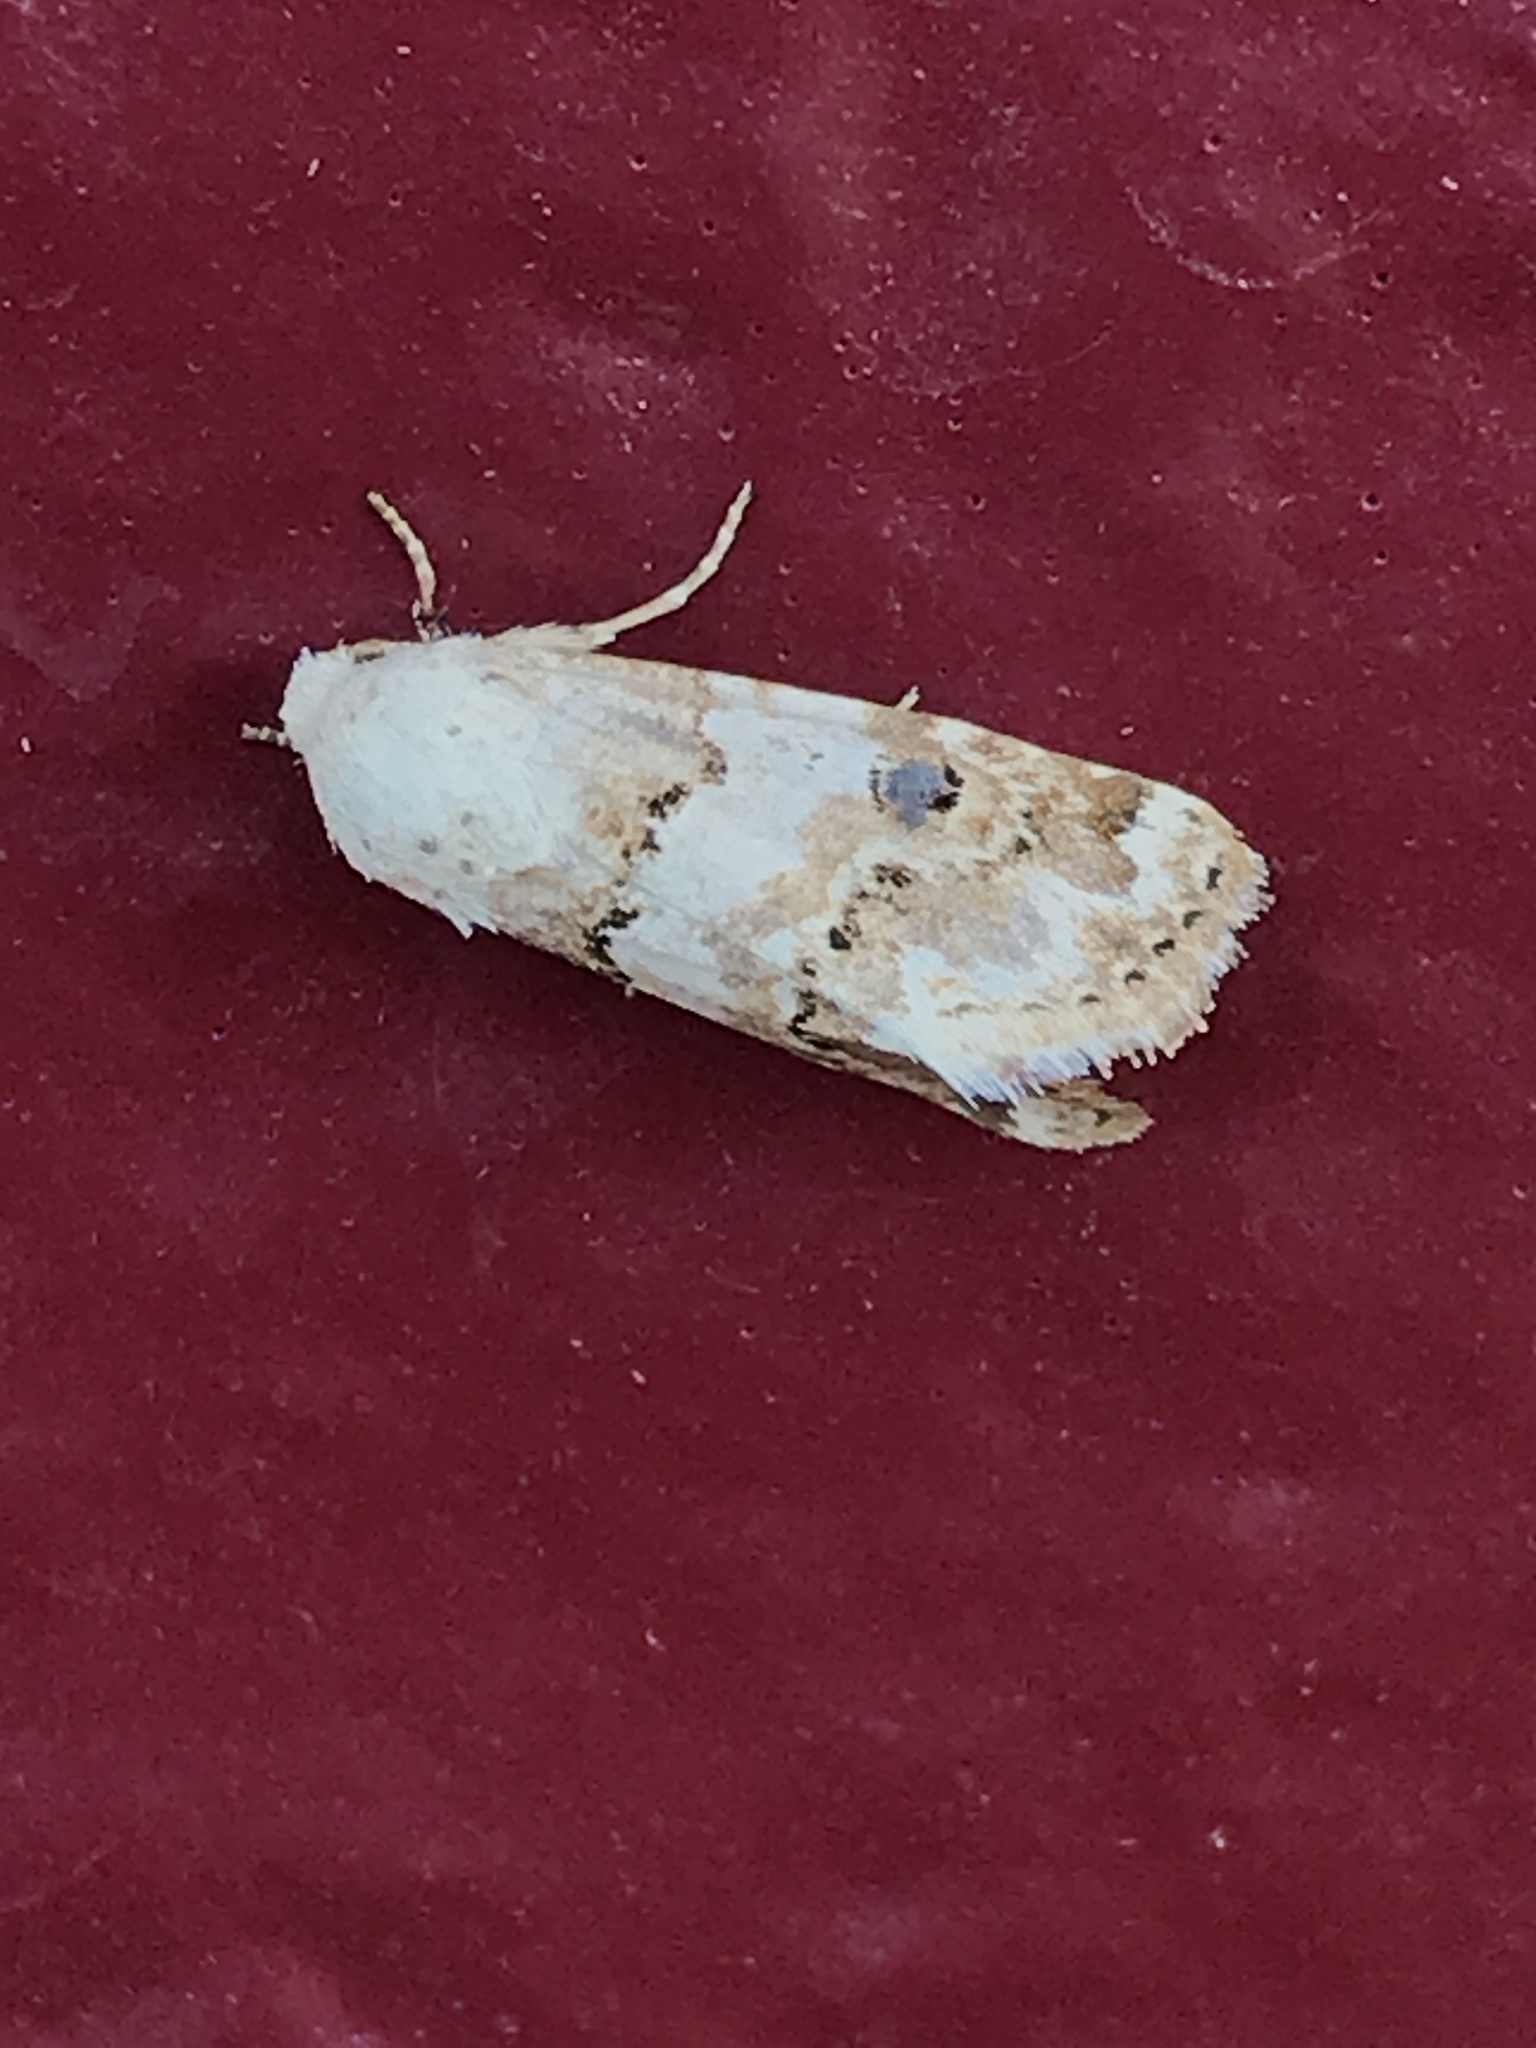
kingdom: Animalia
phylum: Arthropoda
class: Insecta
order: Lepidoptera
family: Noctuidae
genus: Schinia
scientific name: Schinia tertia
